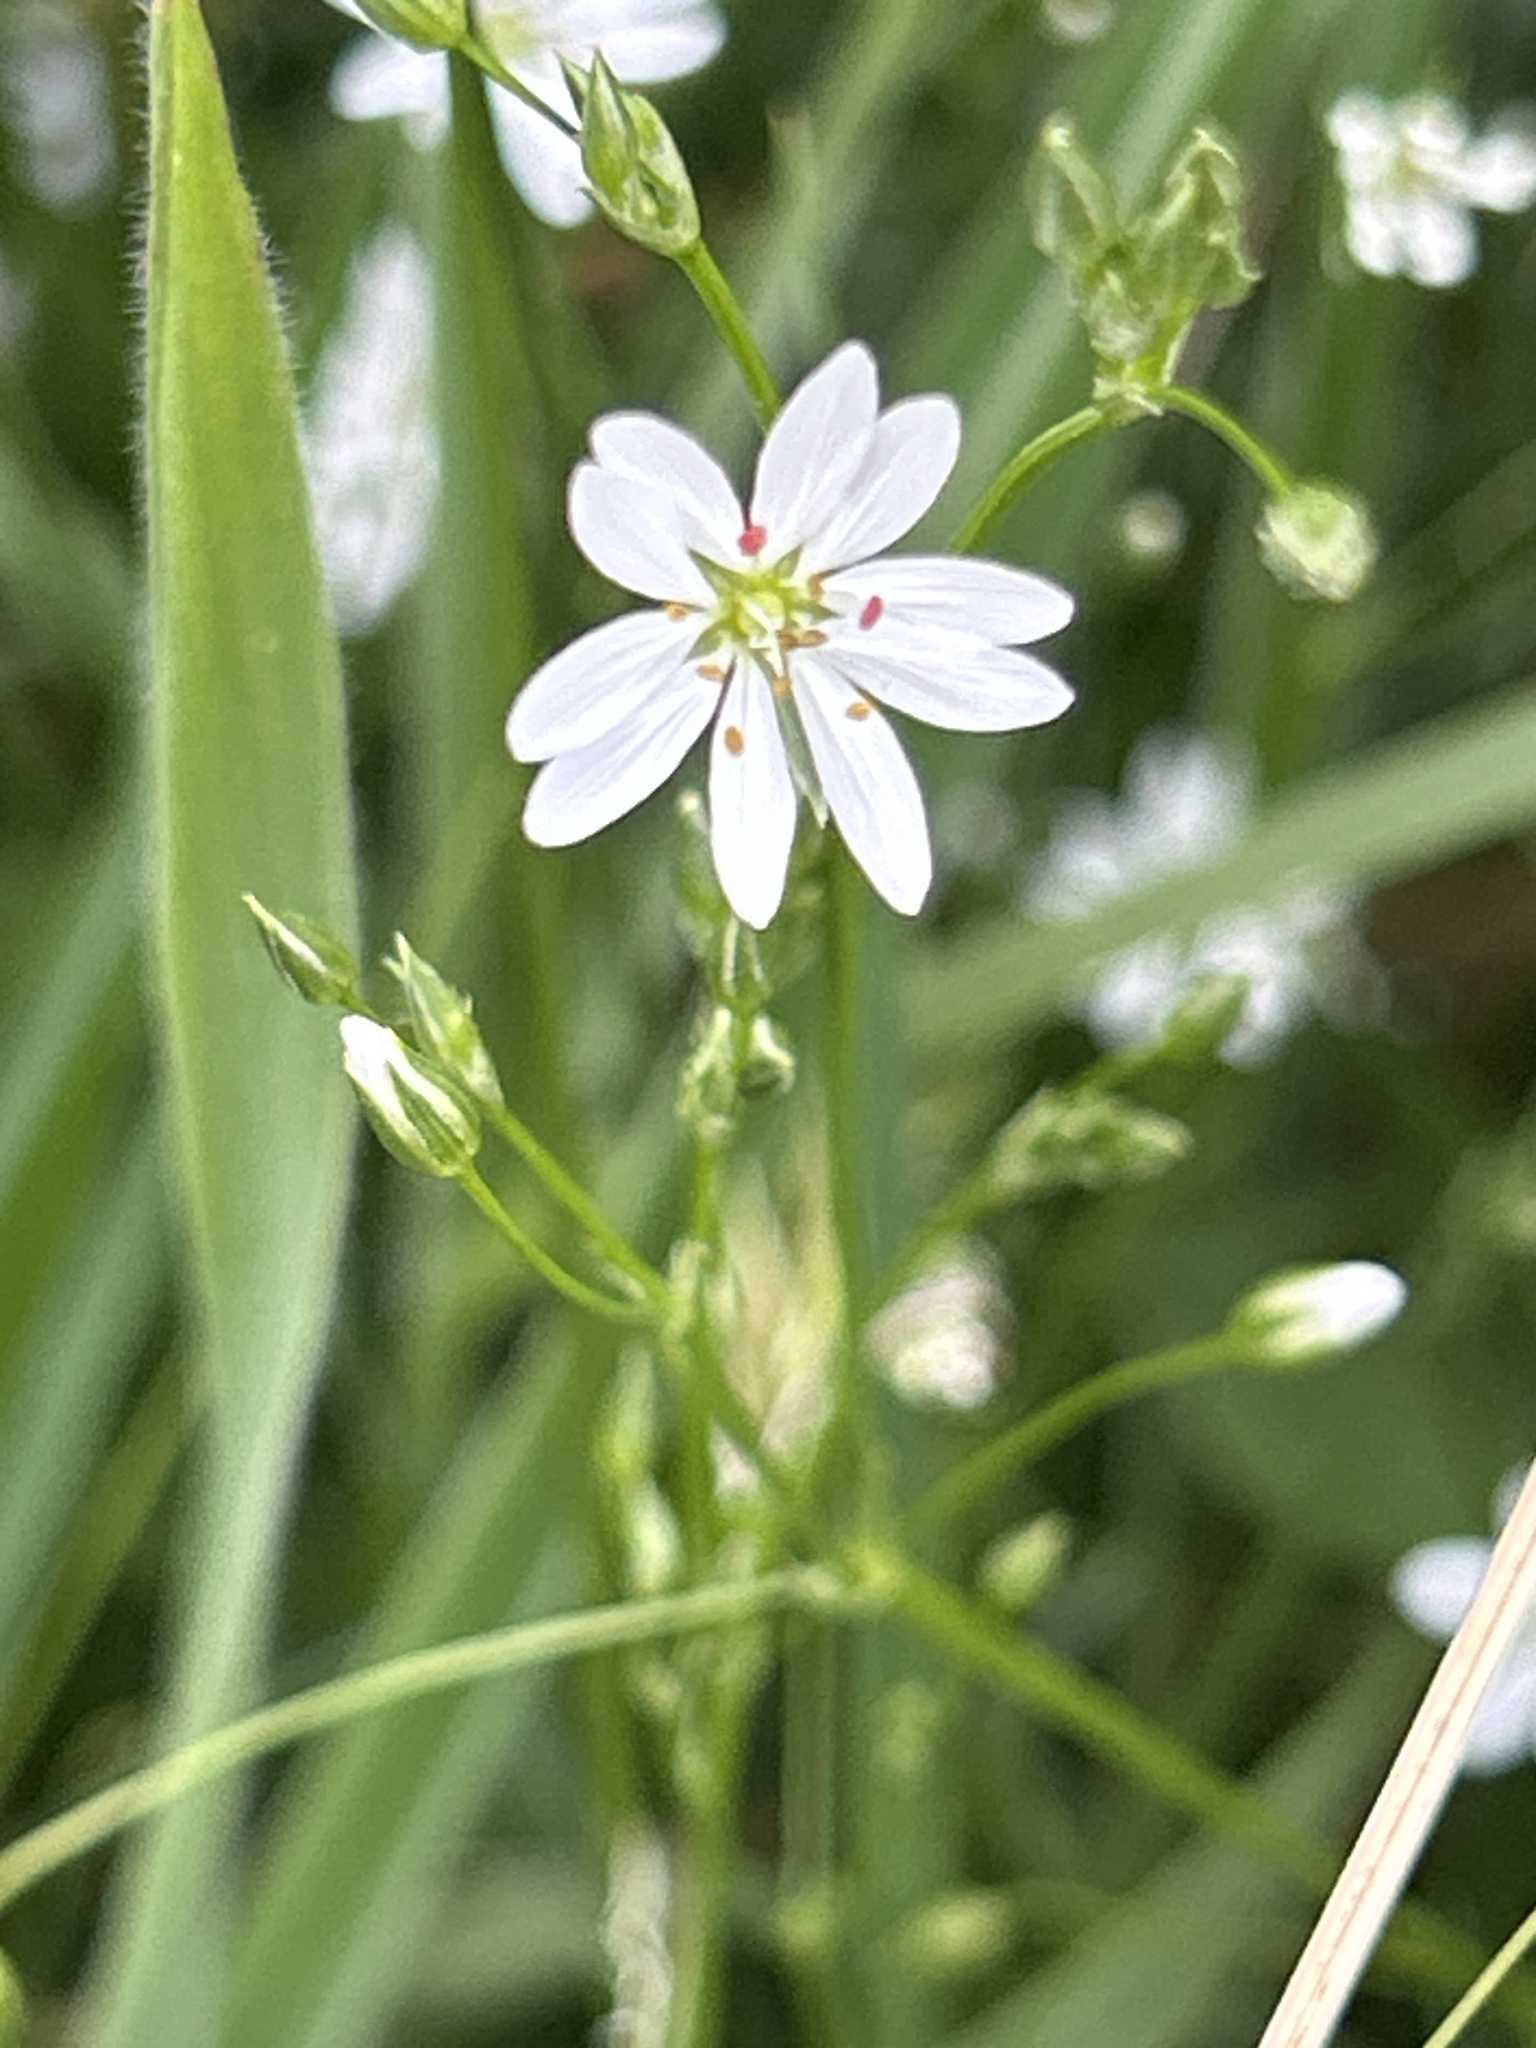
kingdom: Plantae
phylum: Tracheophyta
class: Magnoliopsida
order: Caryophyllales
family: Caryophyllaceae
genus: Stellaria
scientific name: Stellaria graminea
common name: Grass-like starwort
